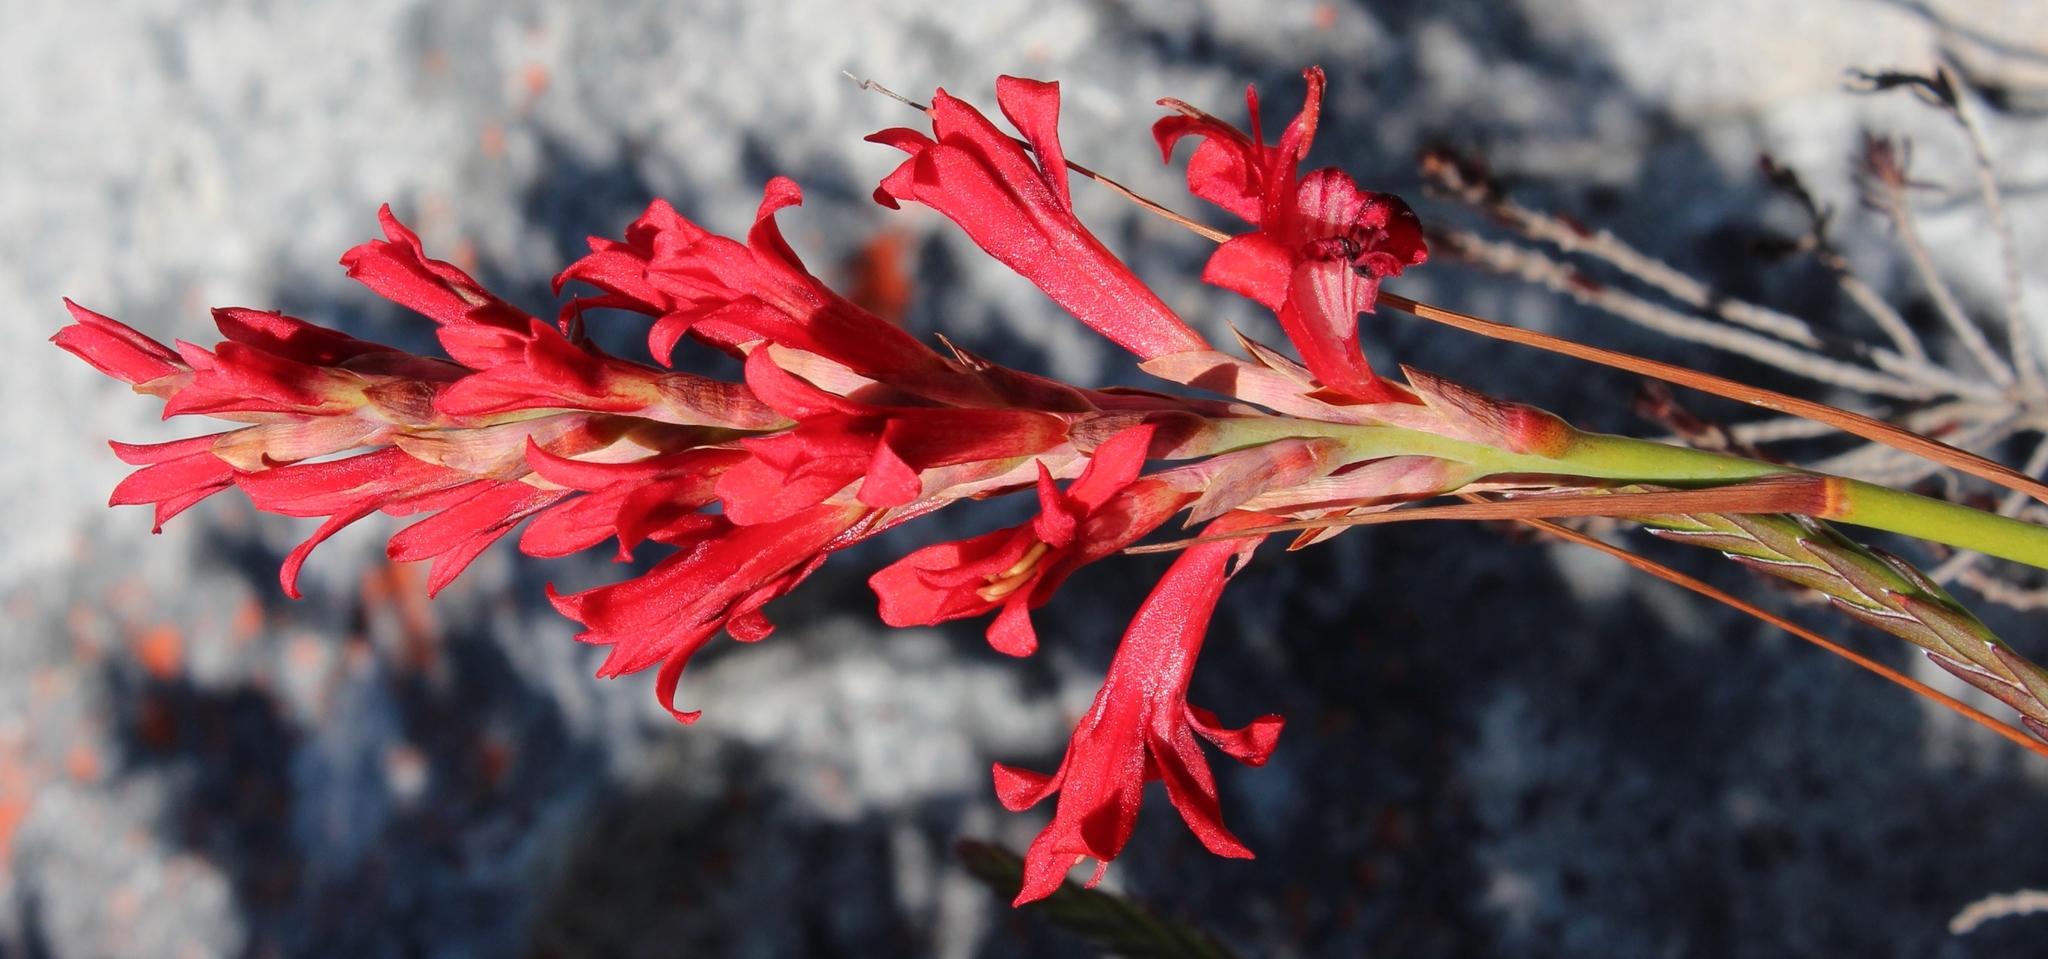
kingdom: Plantae
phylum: Tracheophyta
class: Liliopsida
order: Asparagales
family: Iridaceae
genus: Tritoniopsis
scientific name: Tritoniopsis triticea
